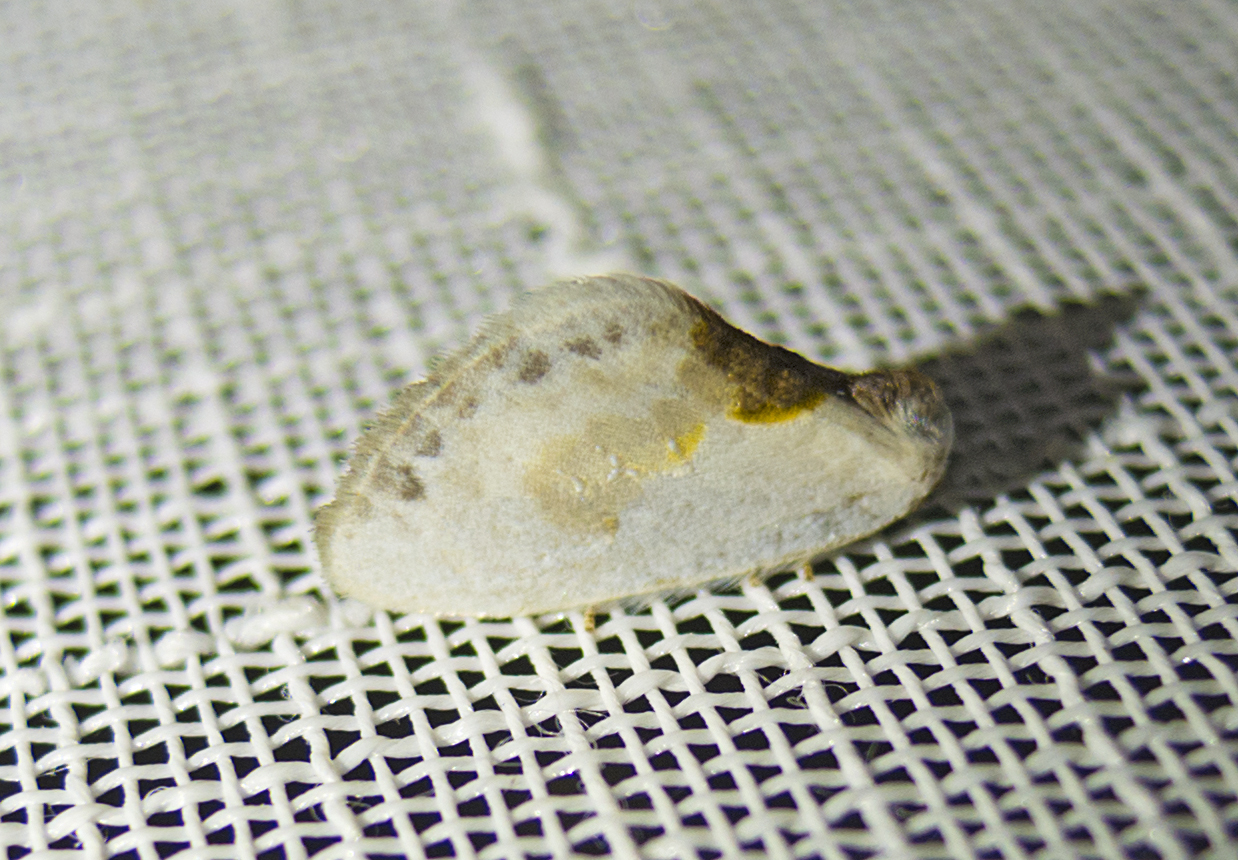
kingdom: Animalia
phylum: Arthropoda
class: Insecta
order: Lepidoptera
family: Drepanidae
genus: Cilix
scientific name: Cilix glaucata
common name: Chinese character
